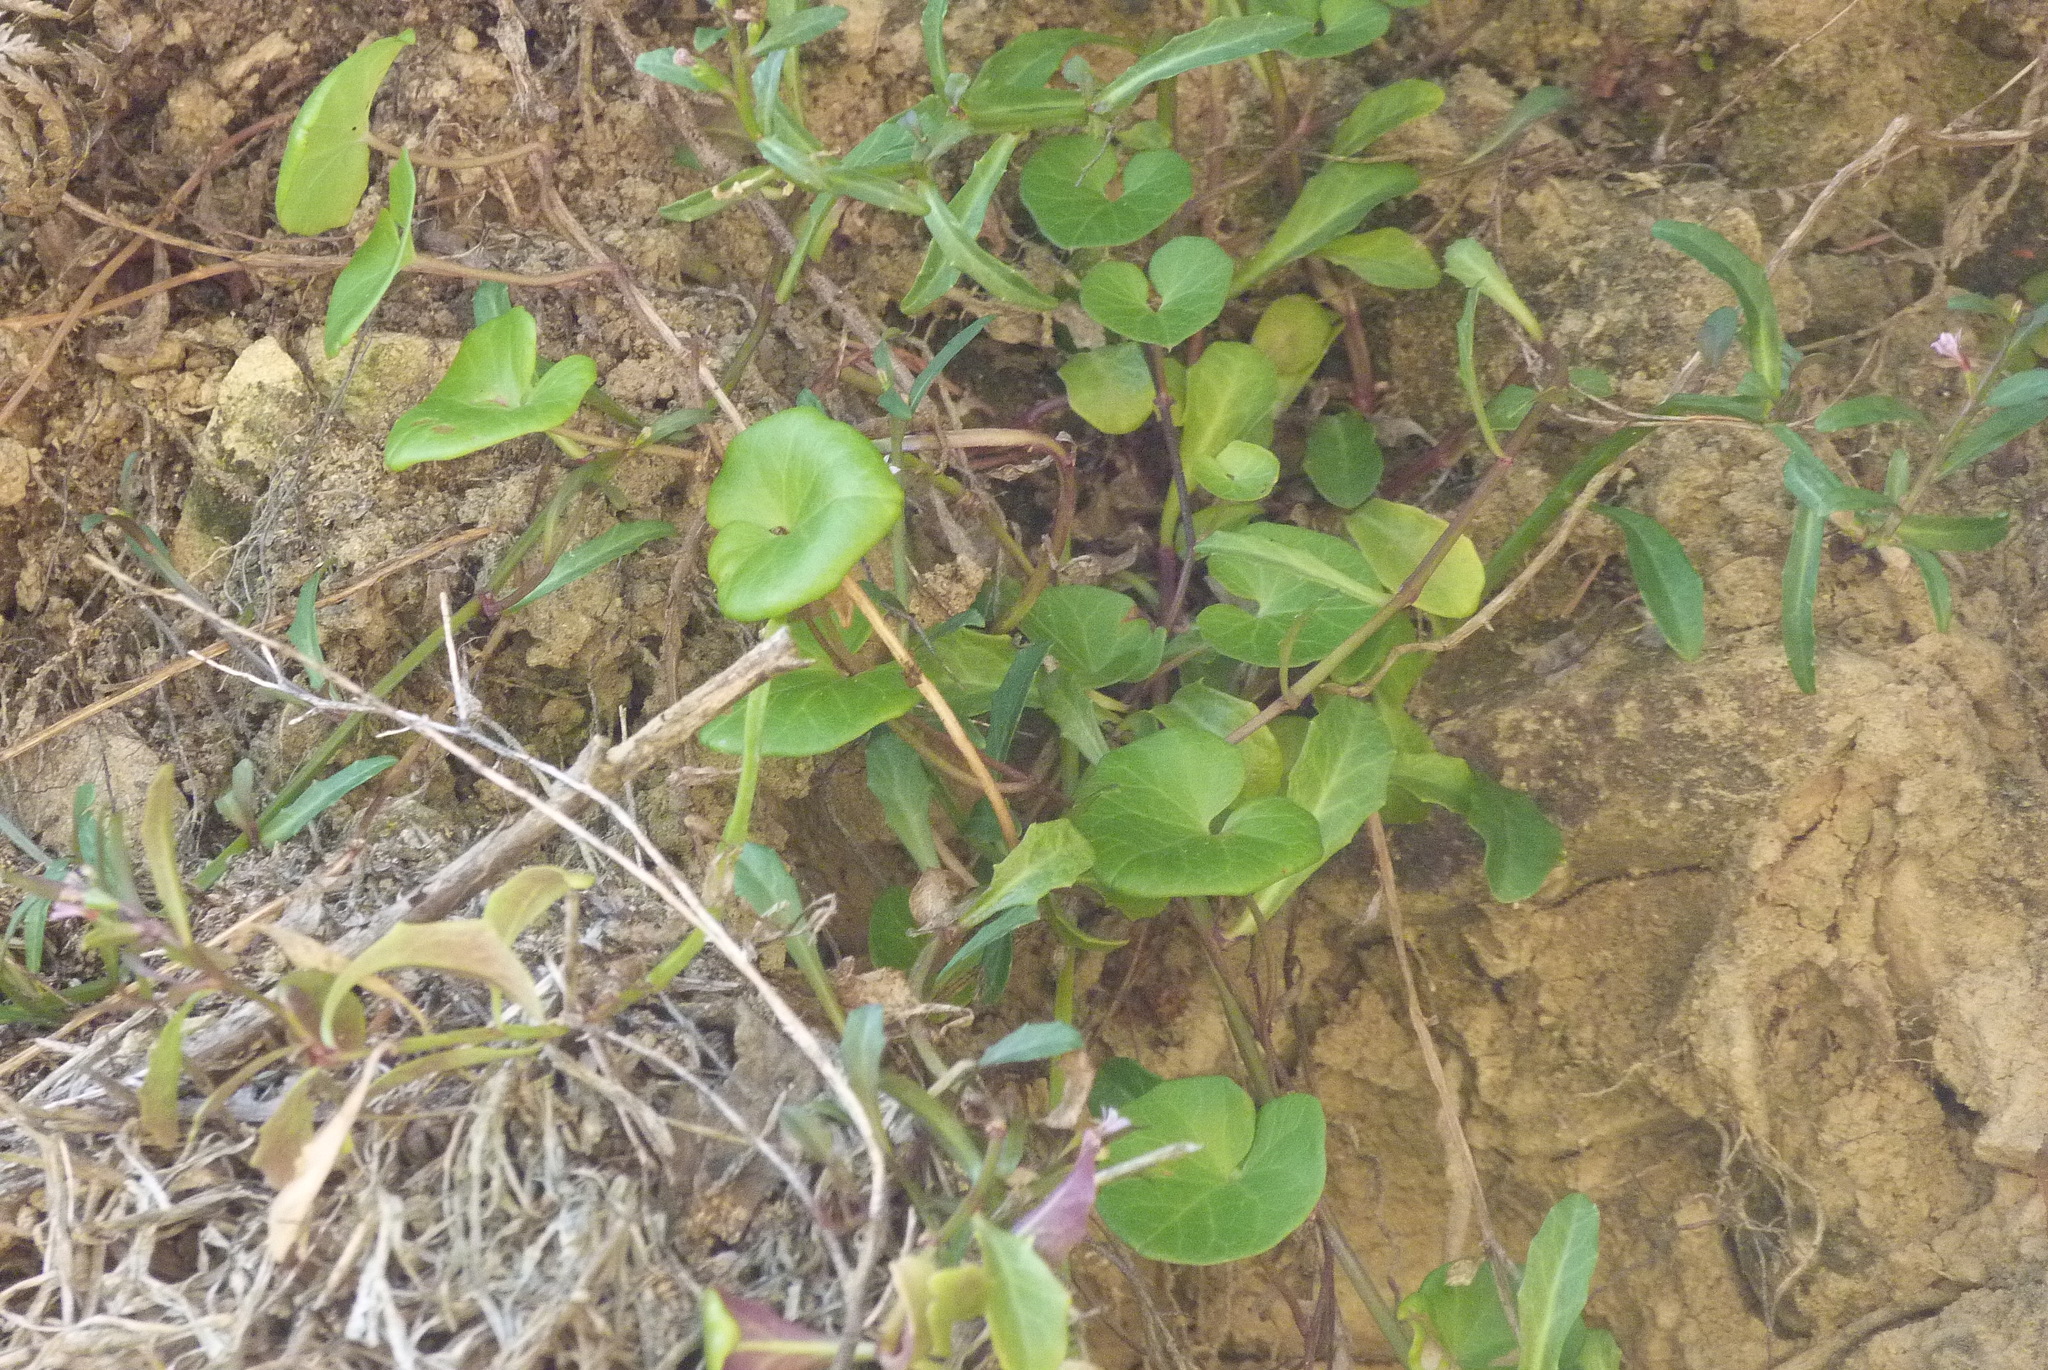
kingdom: Plantae
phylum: Tracheophyta
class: Magnoliopsida
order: Solanales
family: Convolvulaceae
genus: Calystegia
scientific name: Calystegia soldanella
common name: Sea bindweed
